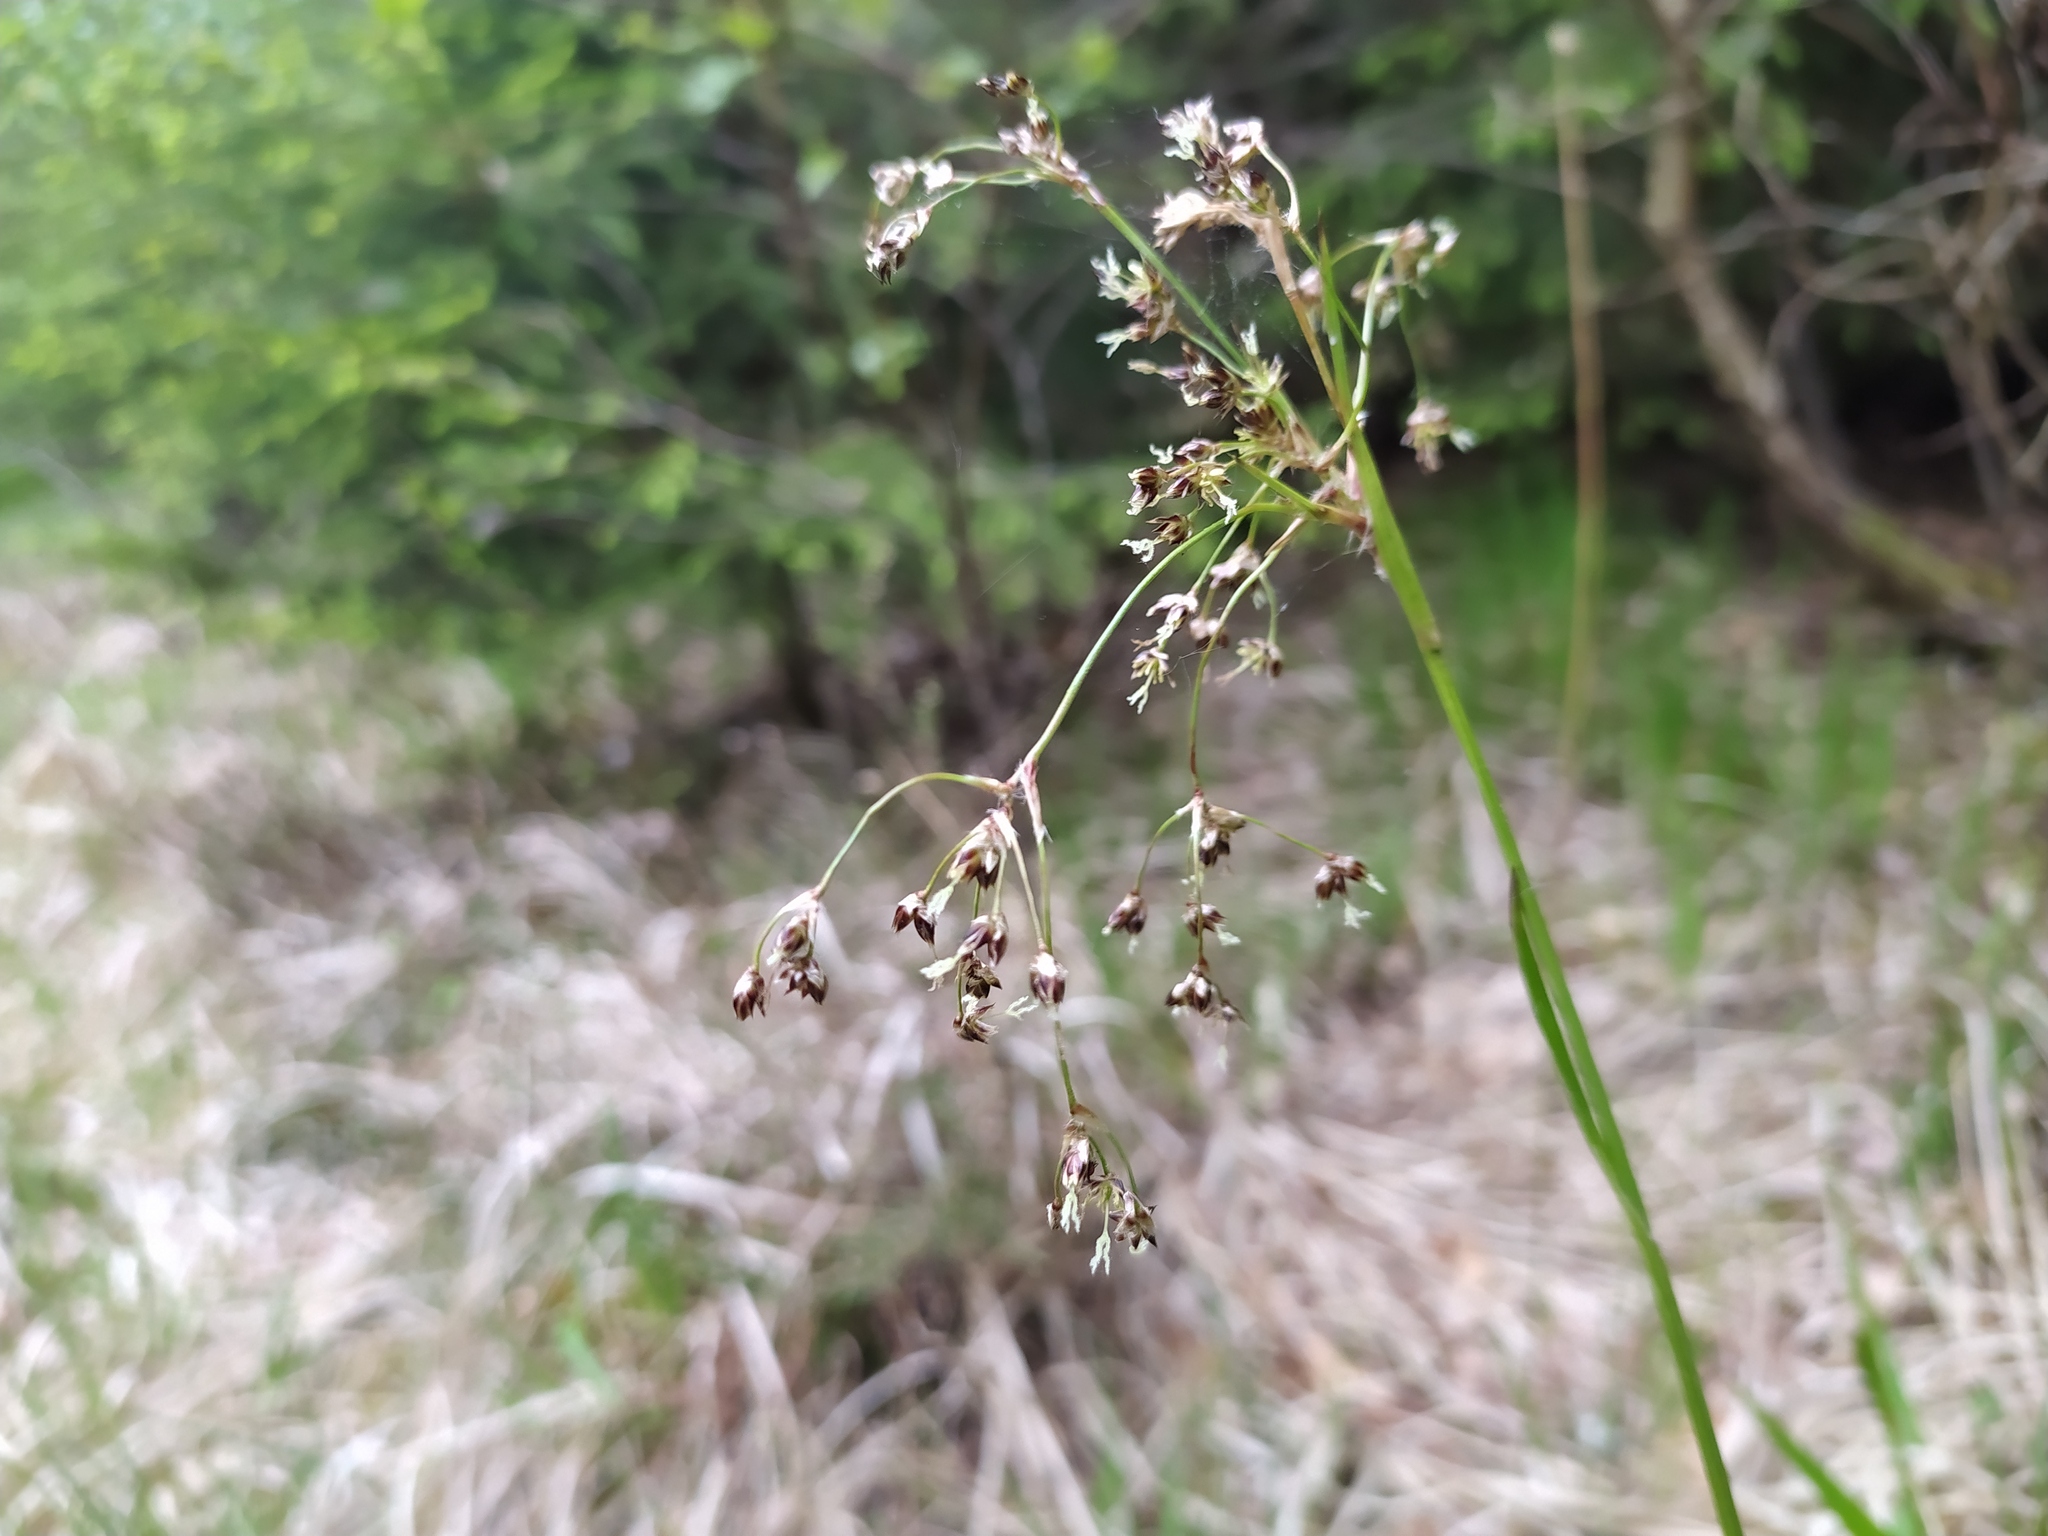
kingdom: Plantae
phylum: Tracheophyta
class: Liliopsida
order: Poales
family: Juncaceae
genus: Luzula
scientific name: Luzula sylvatica
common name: Great wood-rush
